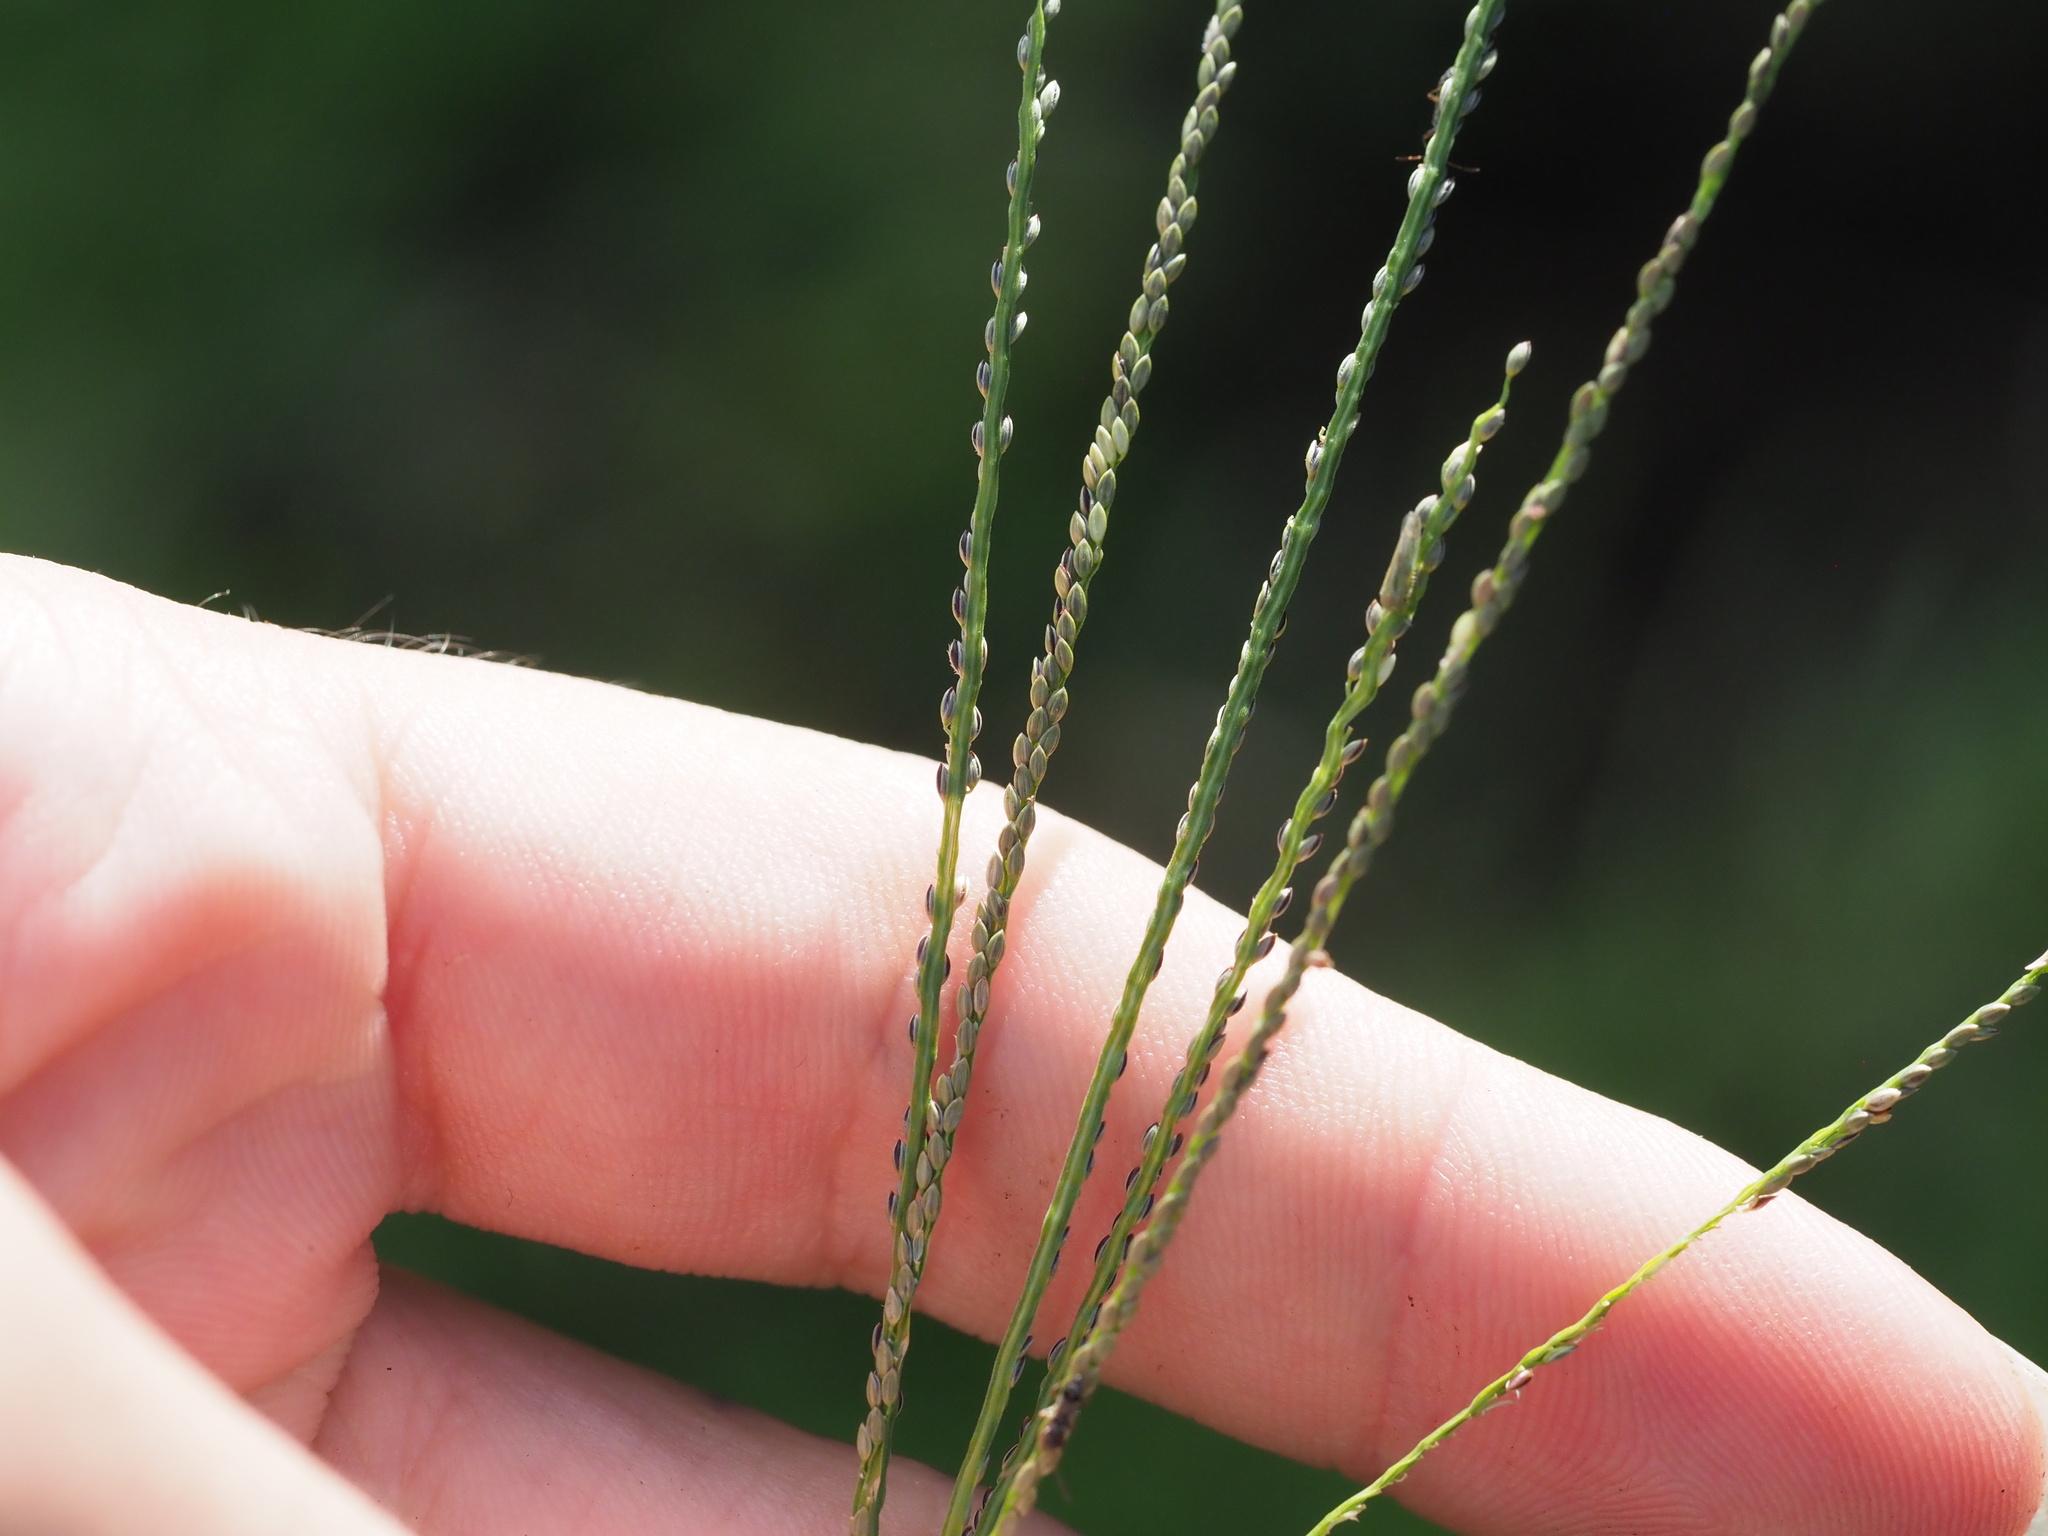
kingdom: Plantae
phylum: Tracheophyta
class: Liliopsida
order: Poales
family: Poaceae
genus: Digitaria
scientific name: Digitaria violascens
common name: Violet crabgrass
